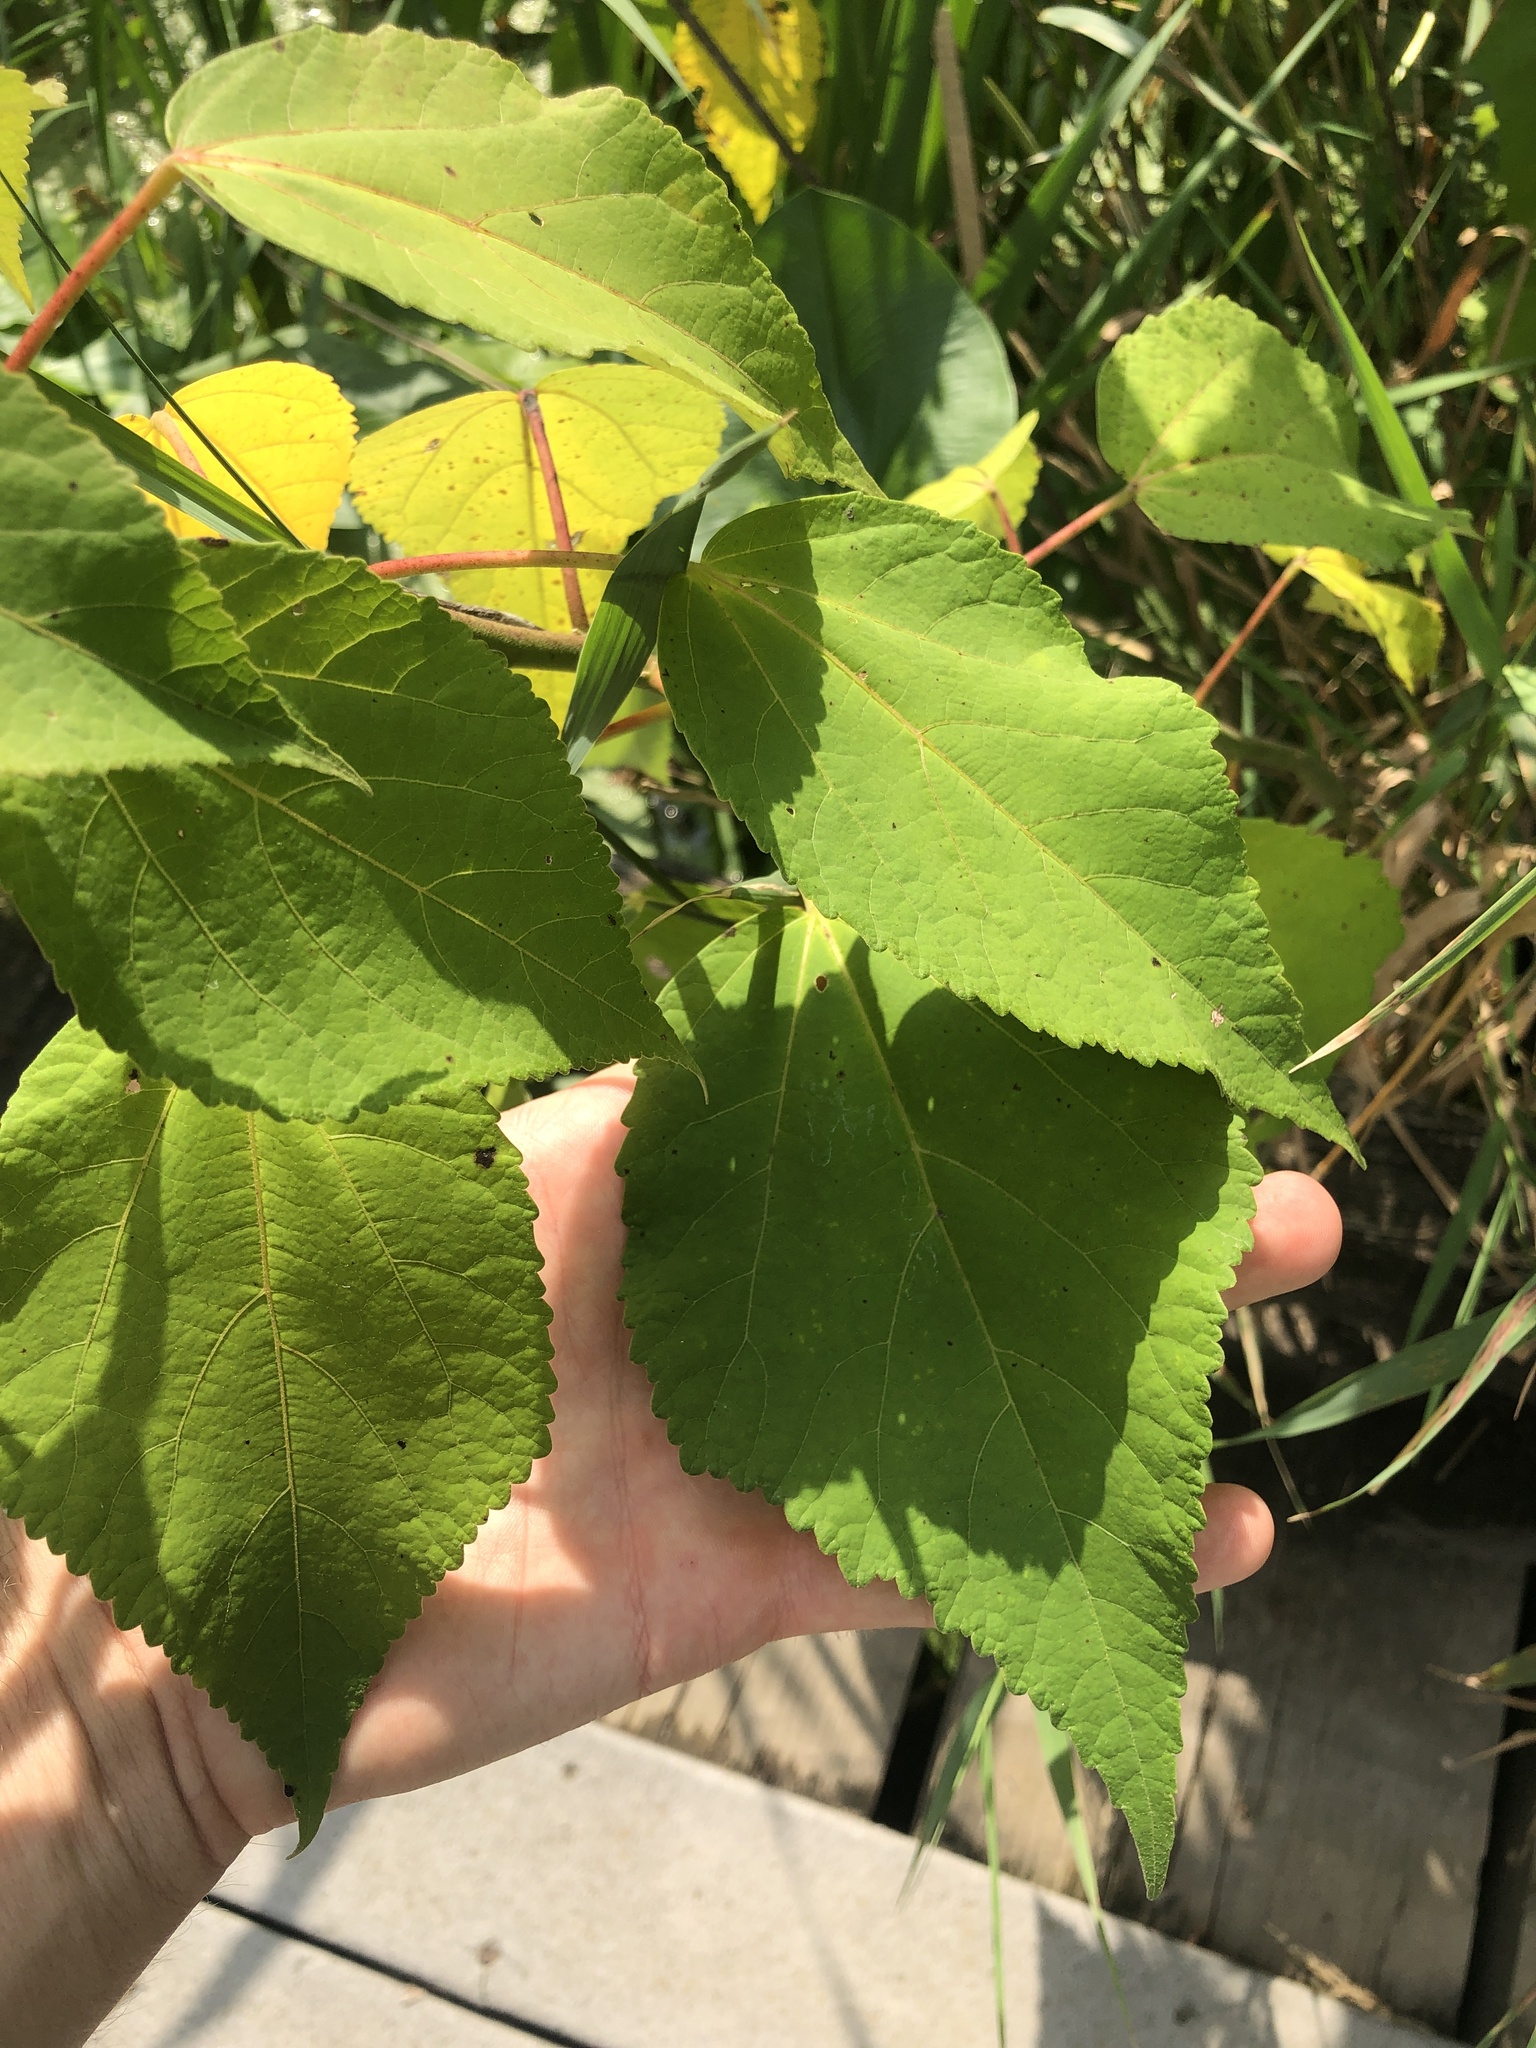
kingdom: Plantae
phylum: Tracheophyta
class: Magnoliopsida
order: Malvales
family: Malvaceae
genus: Hibiscus
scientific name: Hibiscus moscheutos
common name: Common rose-mallow
